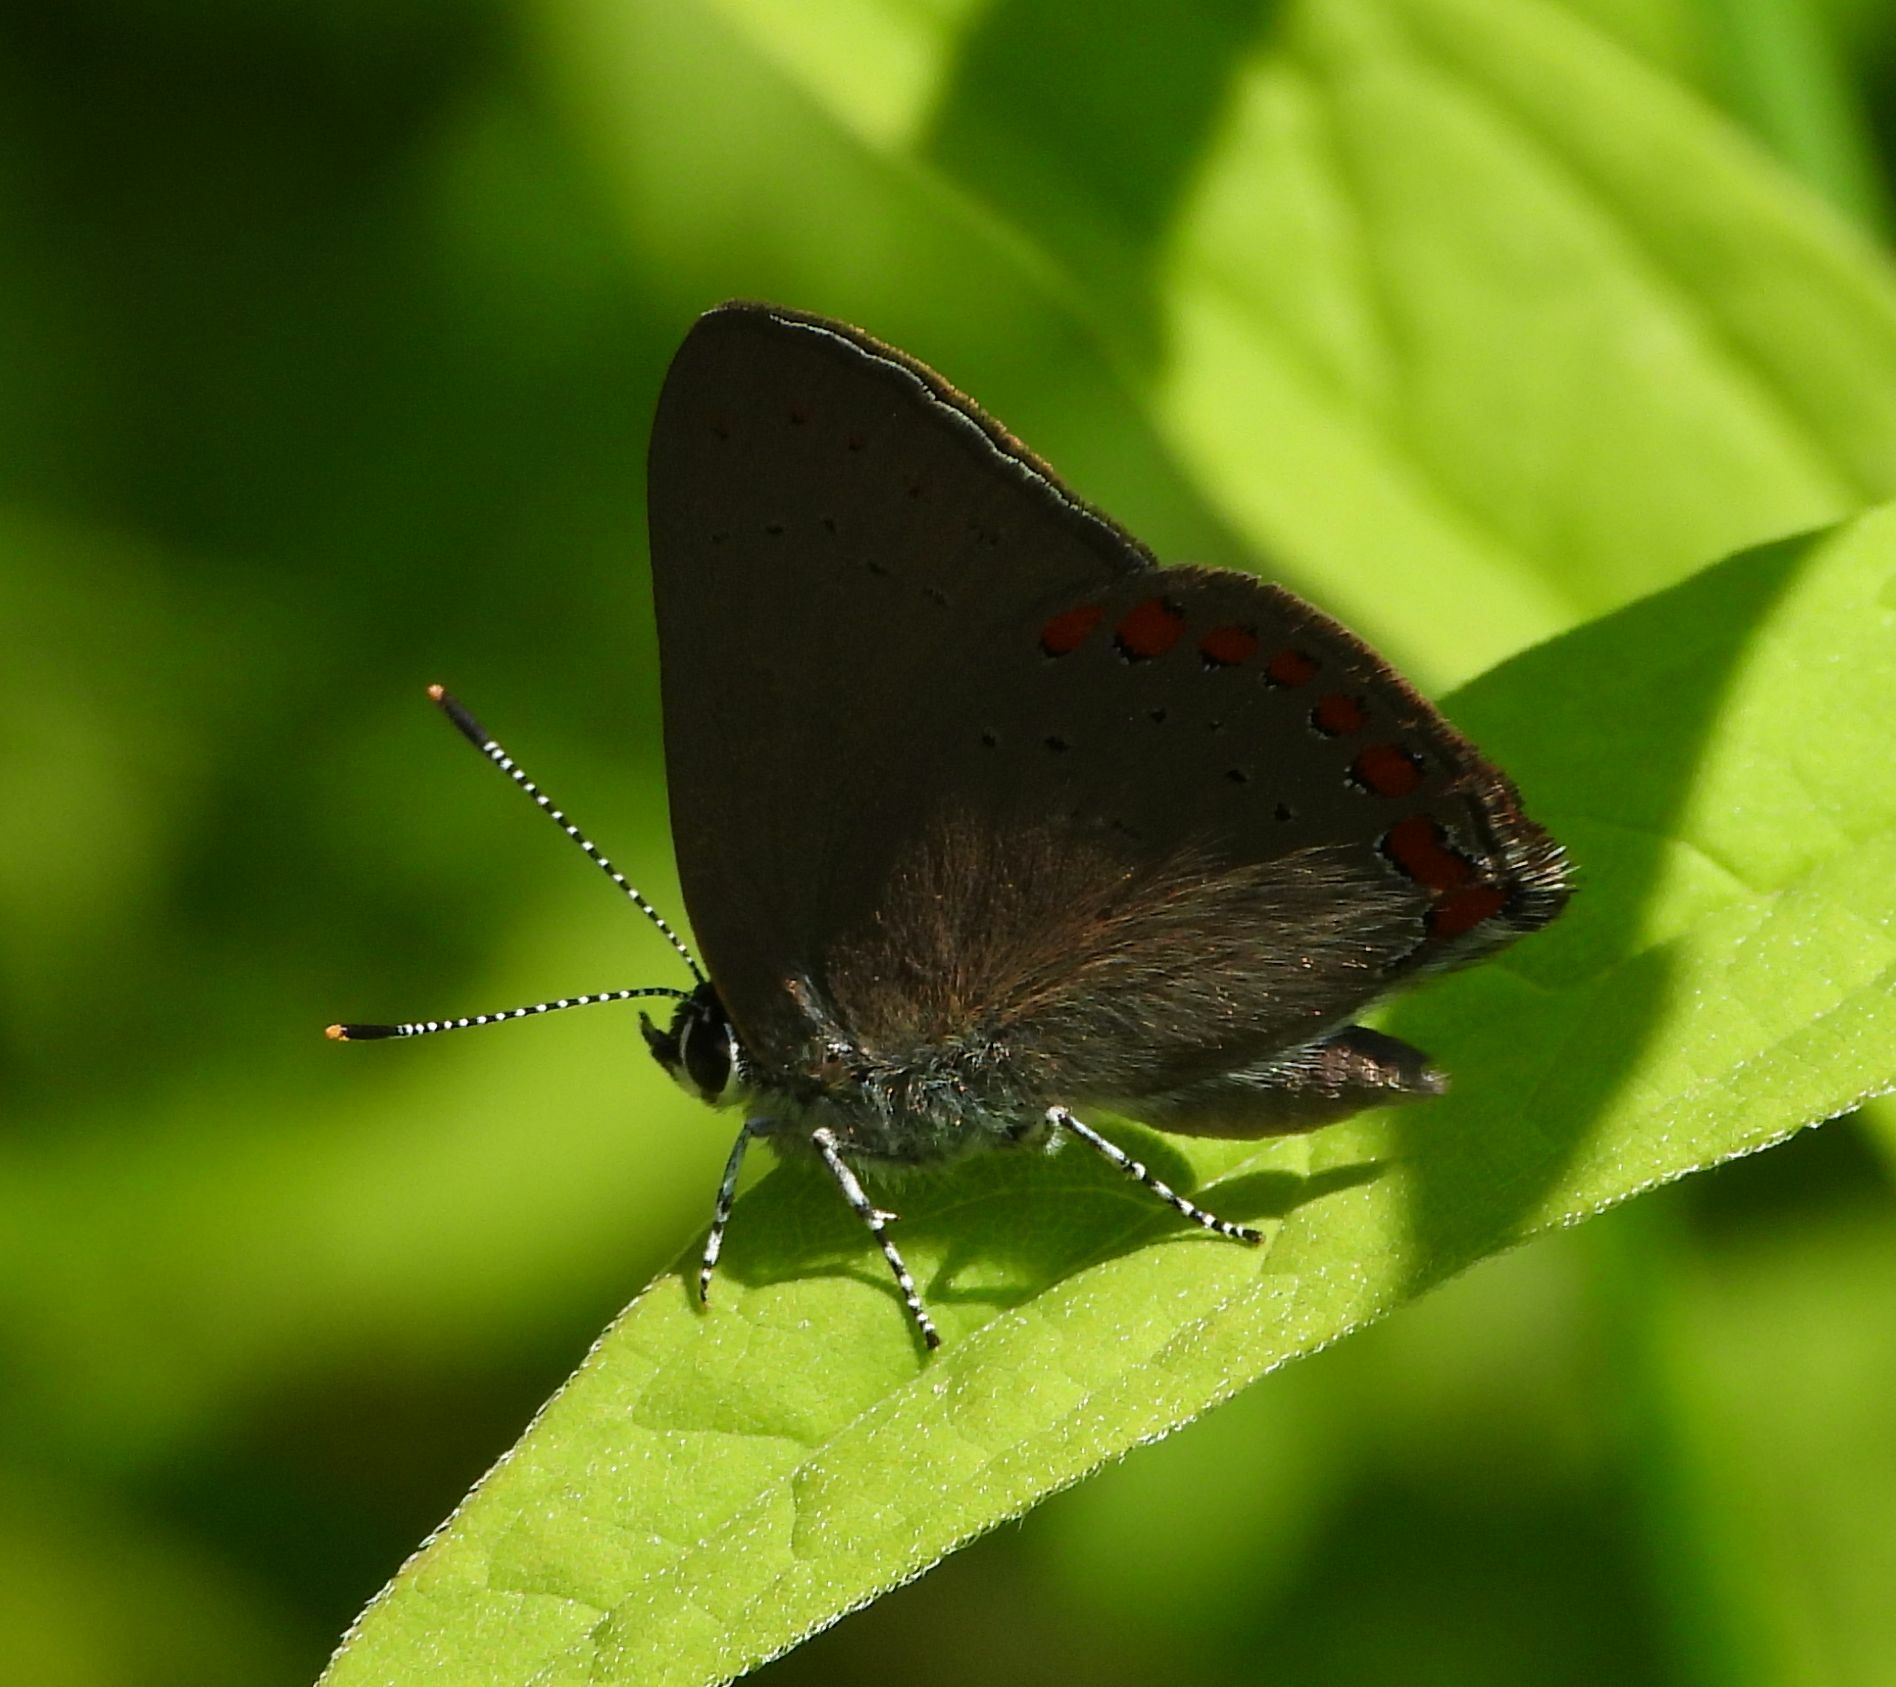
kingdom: Animalia
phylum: Arthropoda
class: Insecta
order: Lepidoptera
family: Lycaenidae
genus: Harkenclenus
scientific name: Harkenclenus titus
